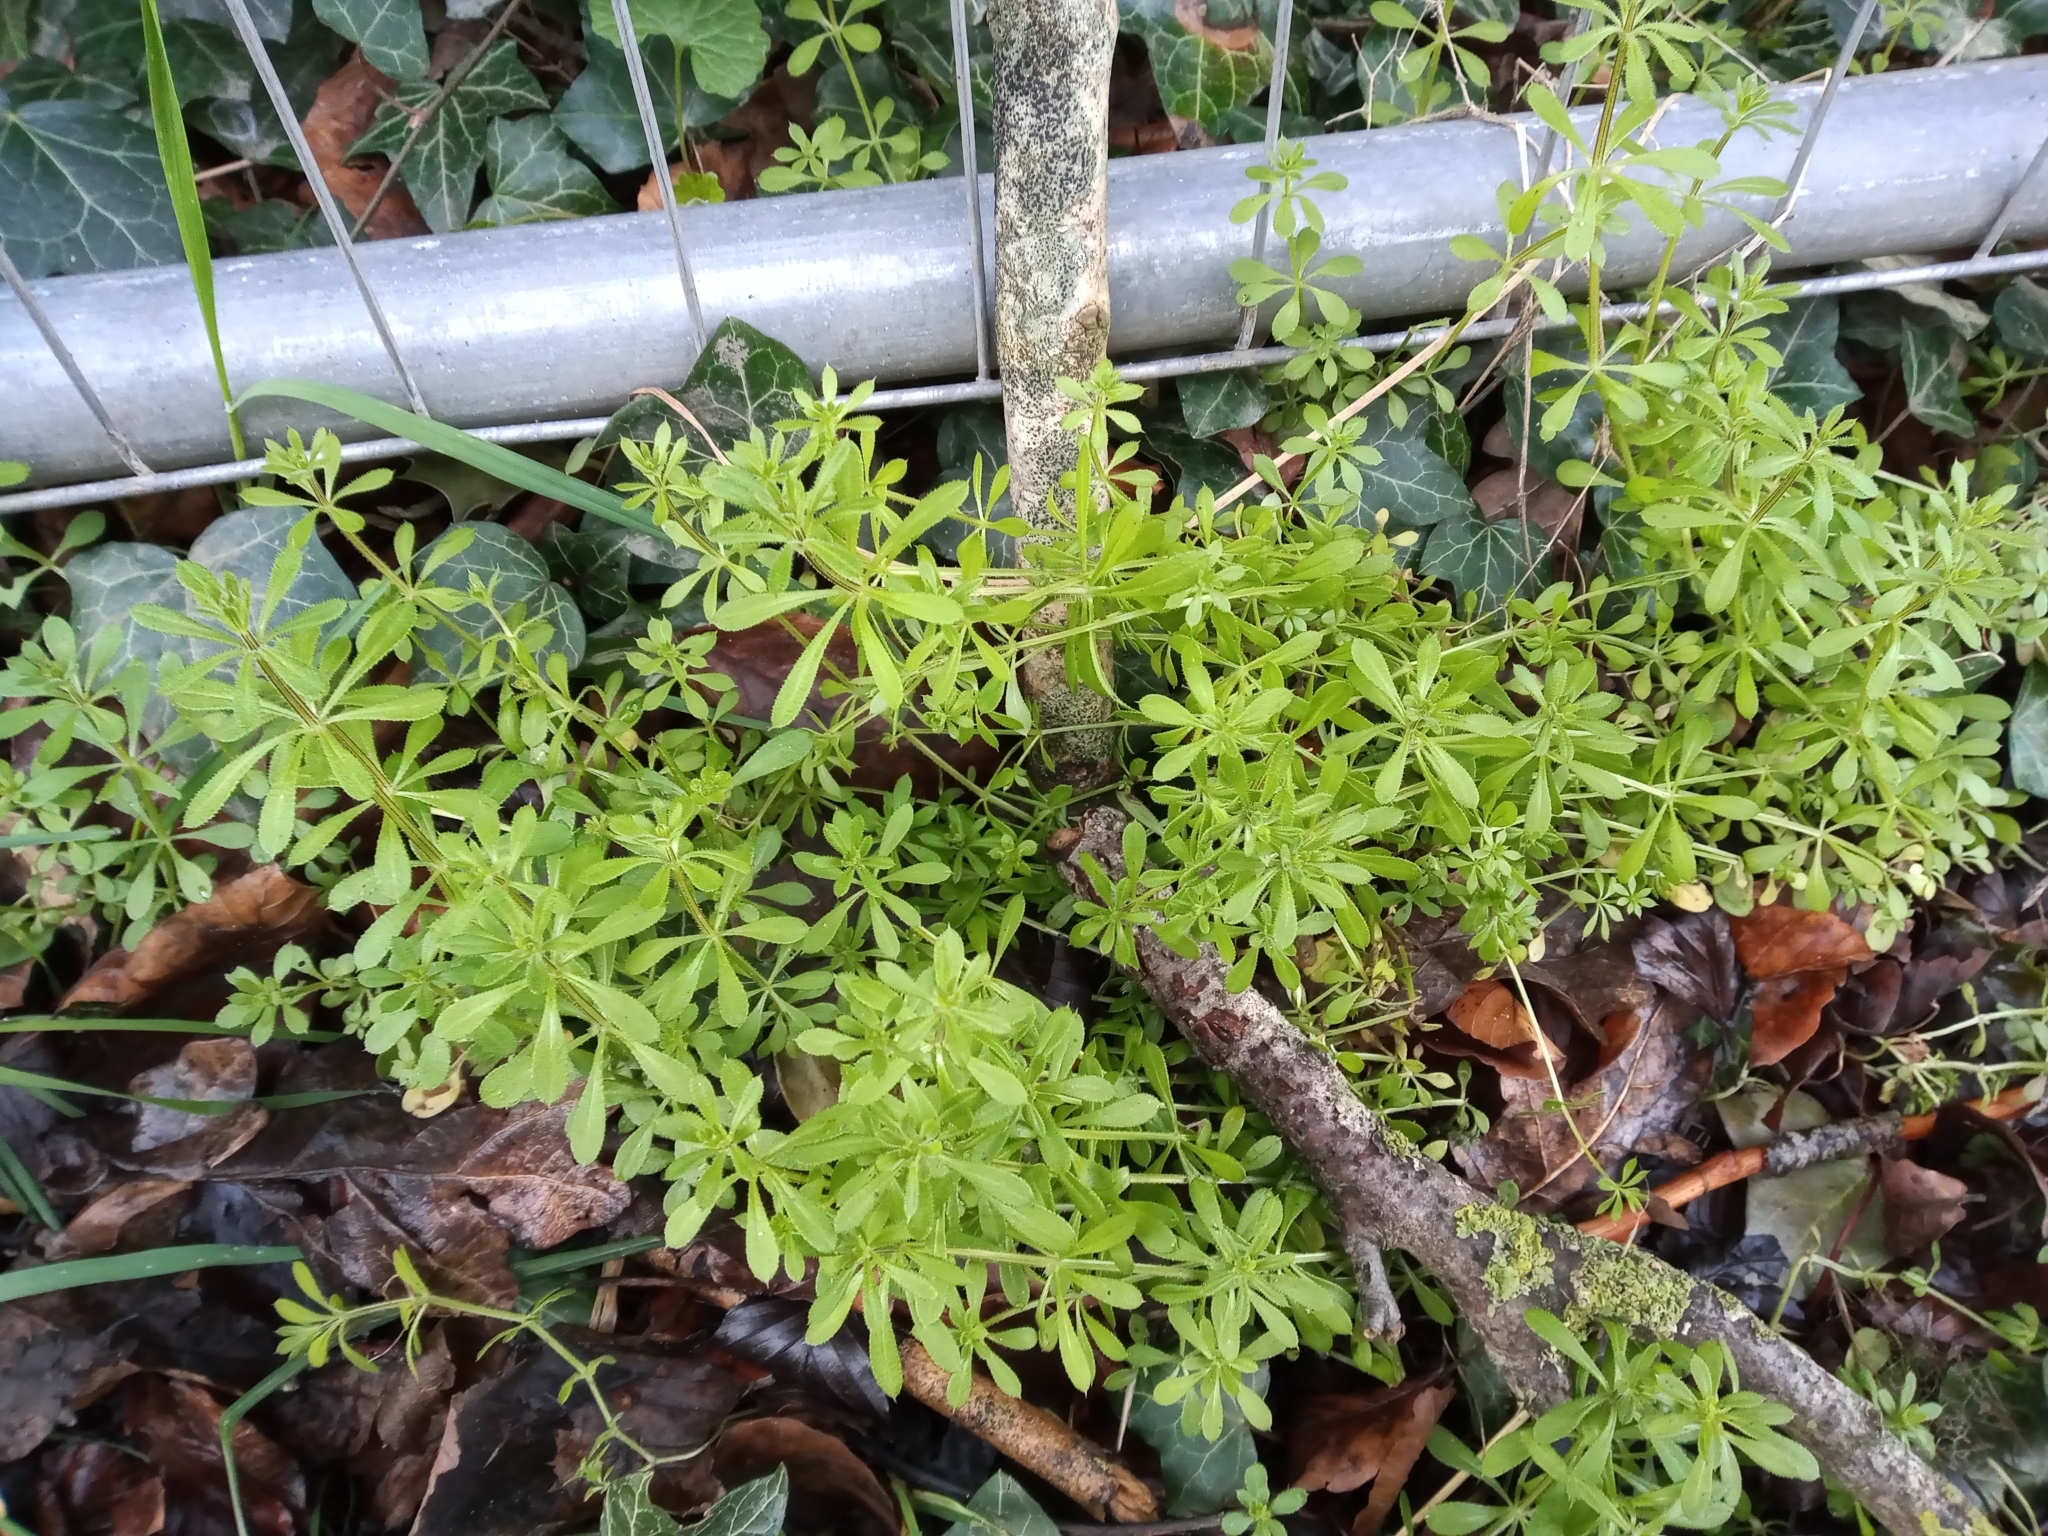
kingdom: Plantae
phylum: Tracheophyta
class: Magnoliopsida
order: Gentianales
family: Rubiaceae
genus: Galium
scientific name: Galium aparine
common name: Cleavers
